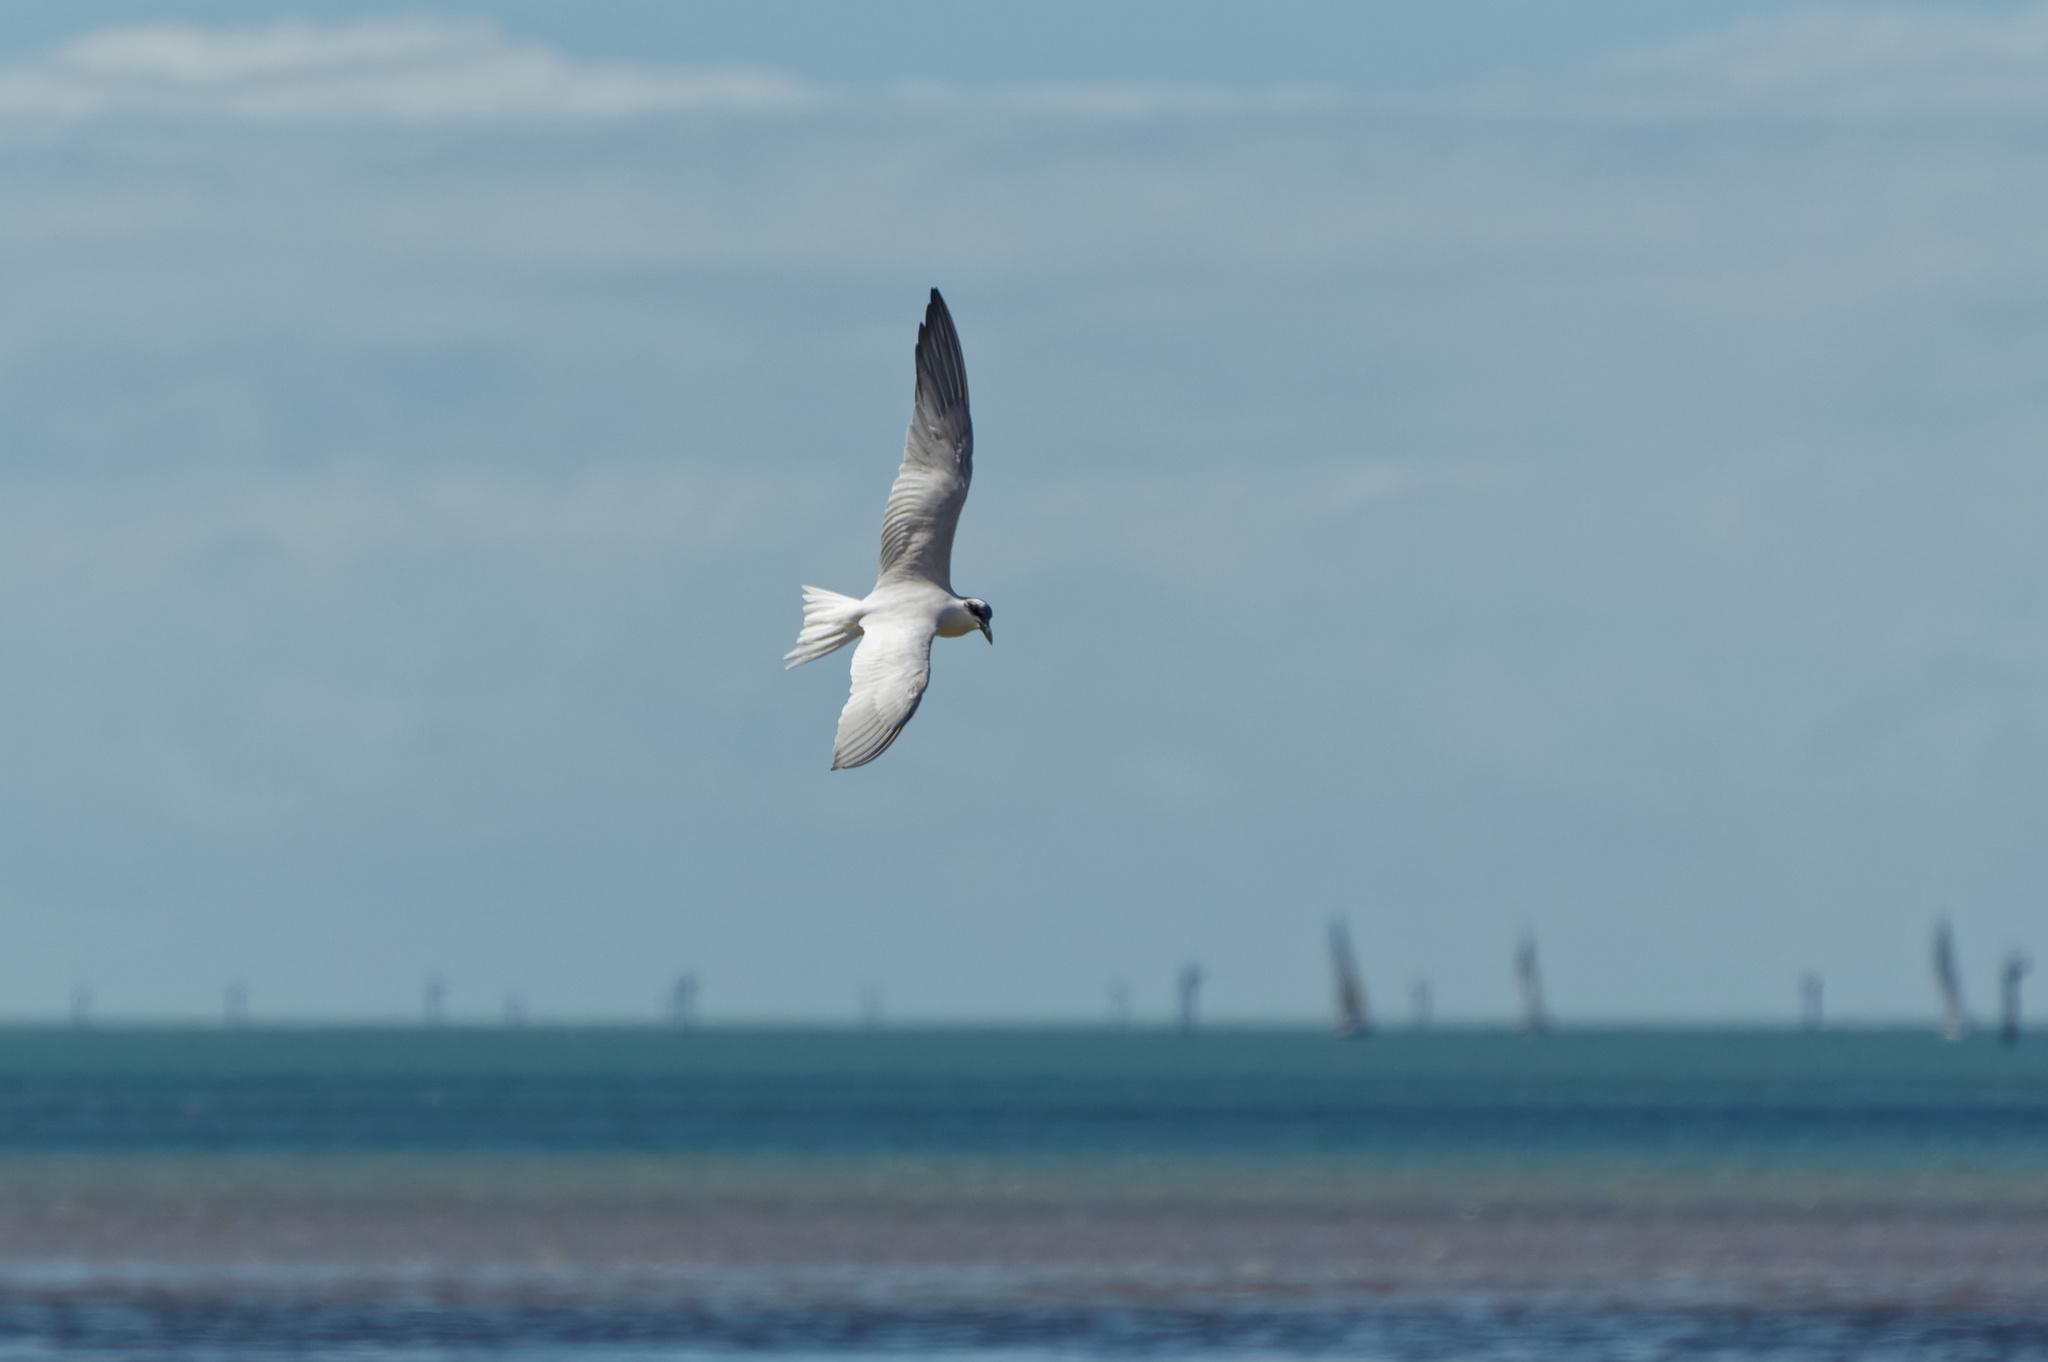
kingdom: Animalia
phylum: Chordata
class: Aves
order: Charadriiformes
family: Laridae
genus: Gelochelidon
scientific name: Gelochelidon macrotarsa
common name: Australian tern
